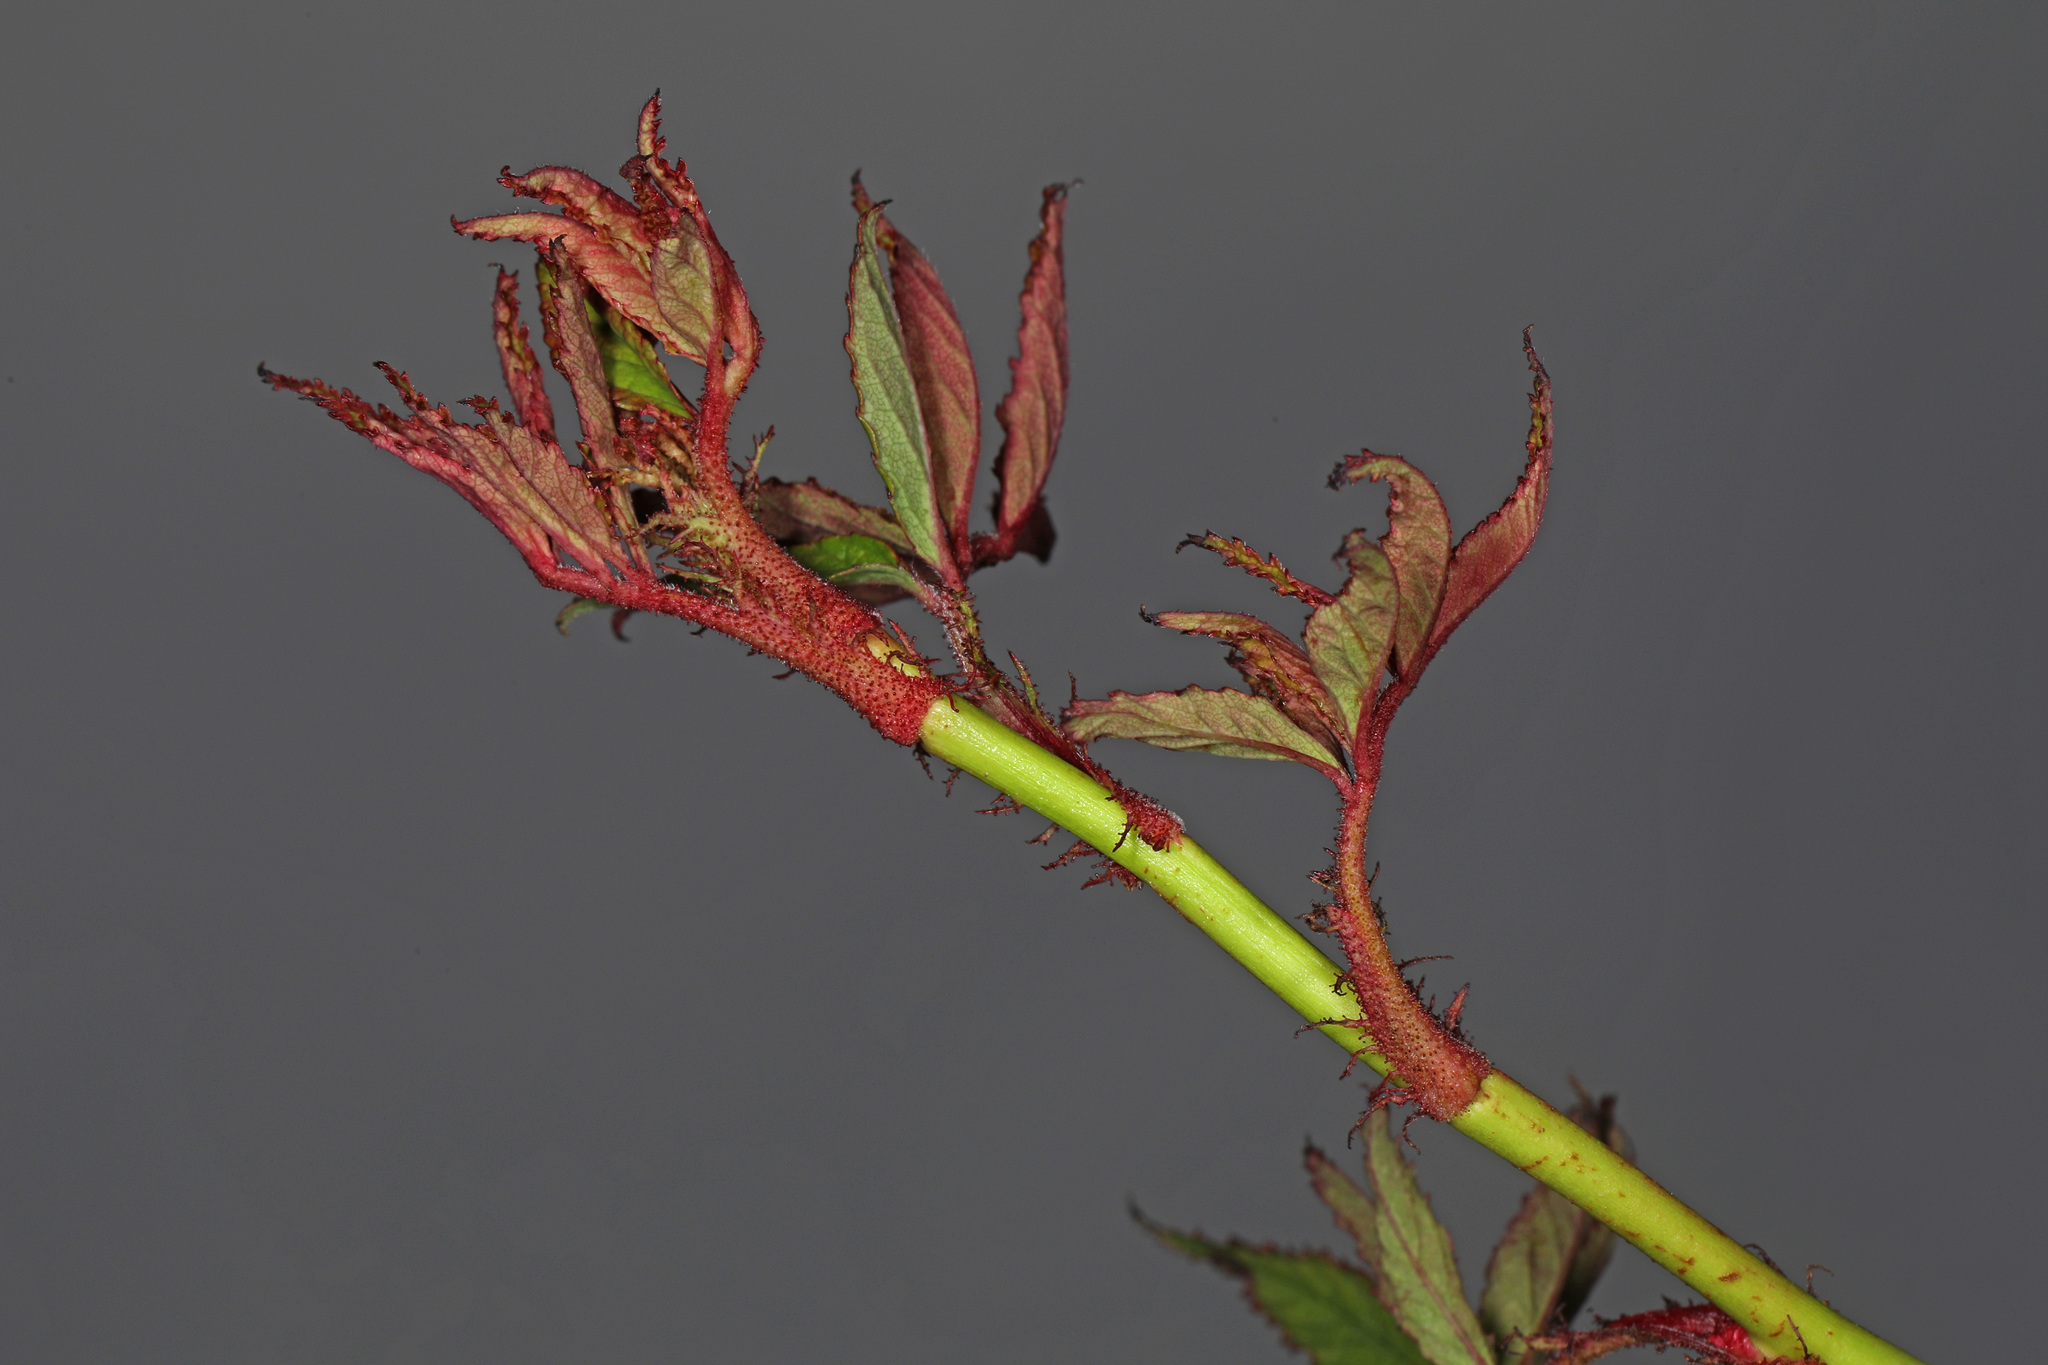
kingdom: Plantae
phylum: Tracheophyta
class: Magnoliopsida
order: Rosales
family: Rosaceae
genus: Rosa
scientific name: Rosa multiflora
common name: Multiflora rose
